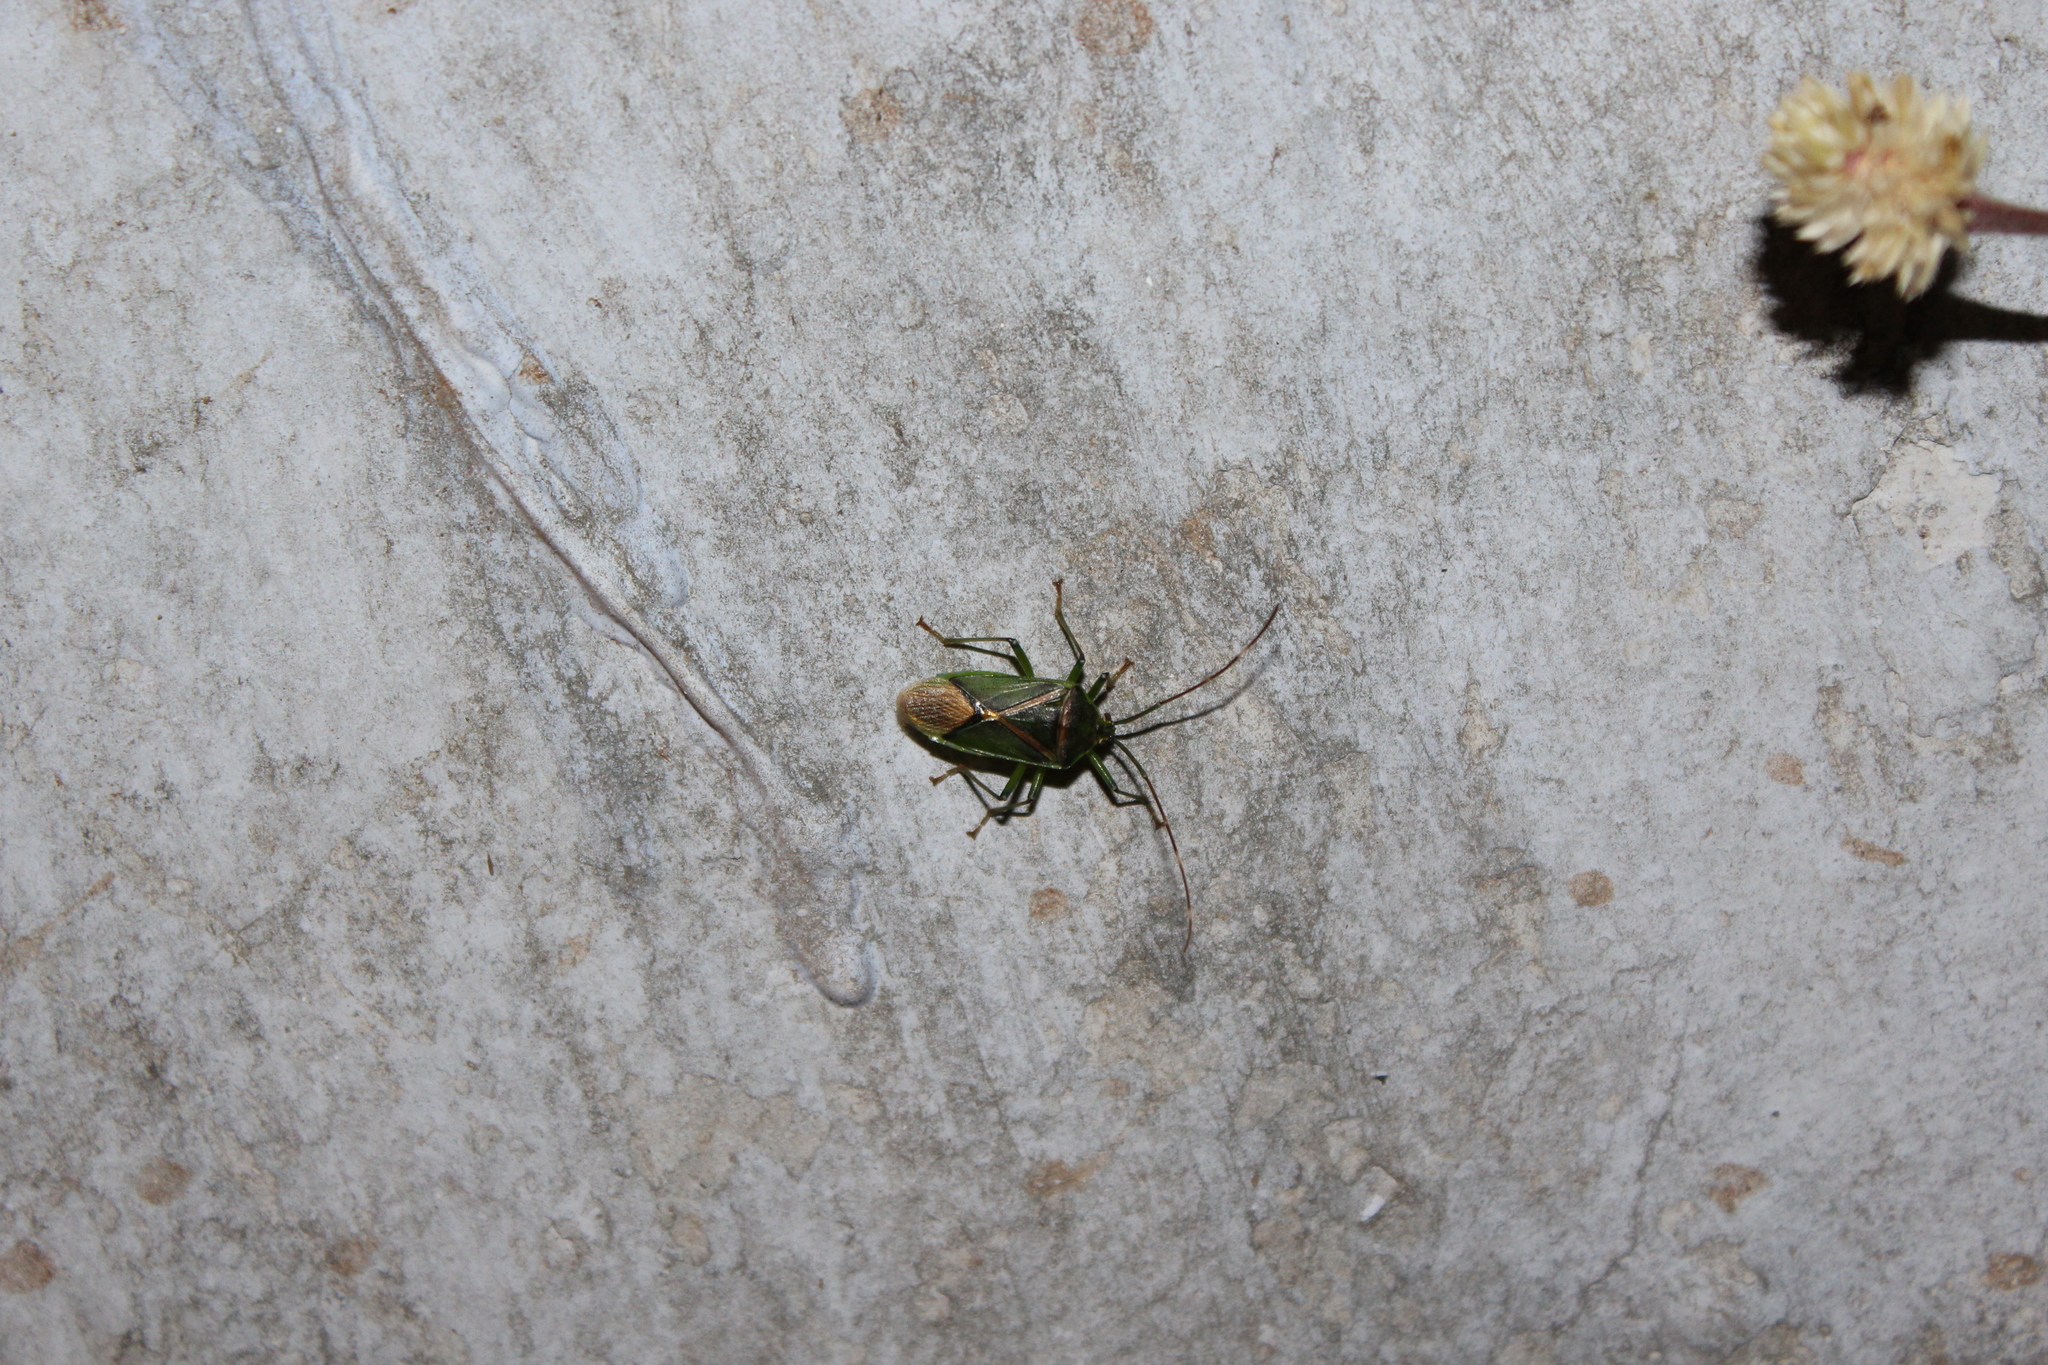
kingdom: Animalia
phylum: Arthropoda
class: Insecta
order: Hemiptera
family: Urostylididae
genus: Urolabida
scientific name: Urolabida
